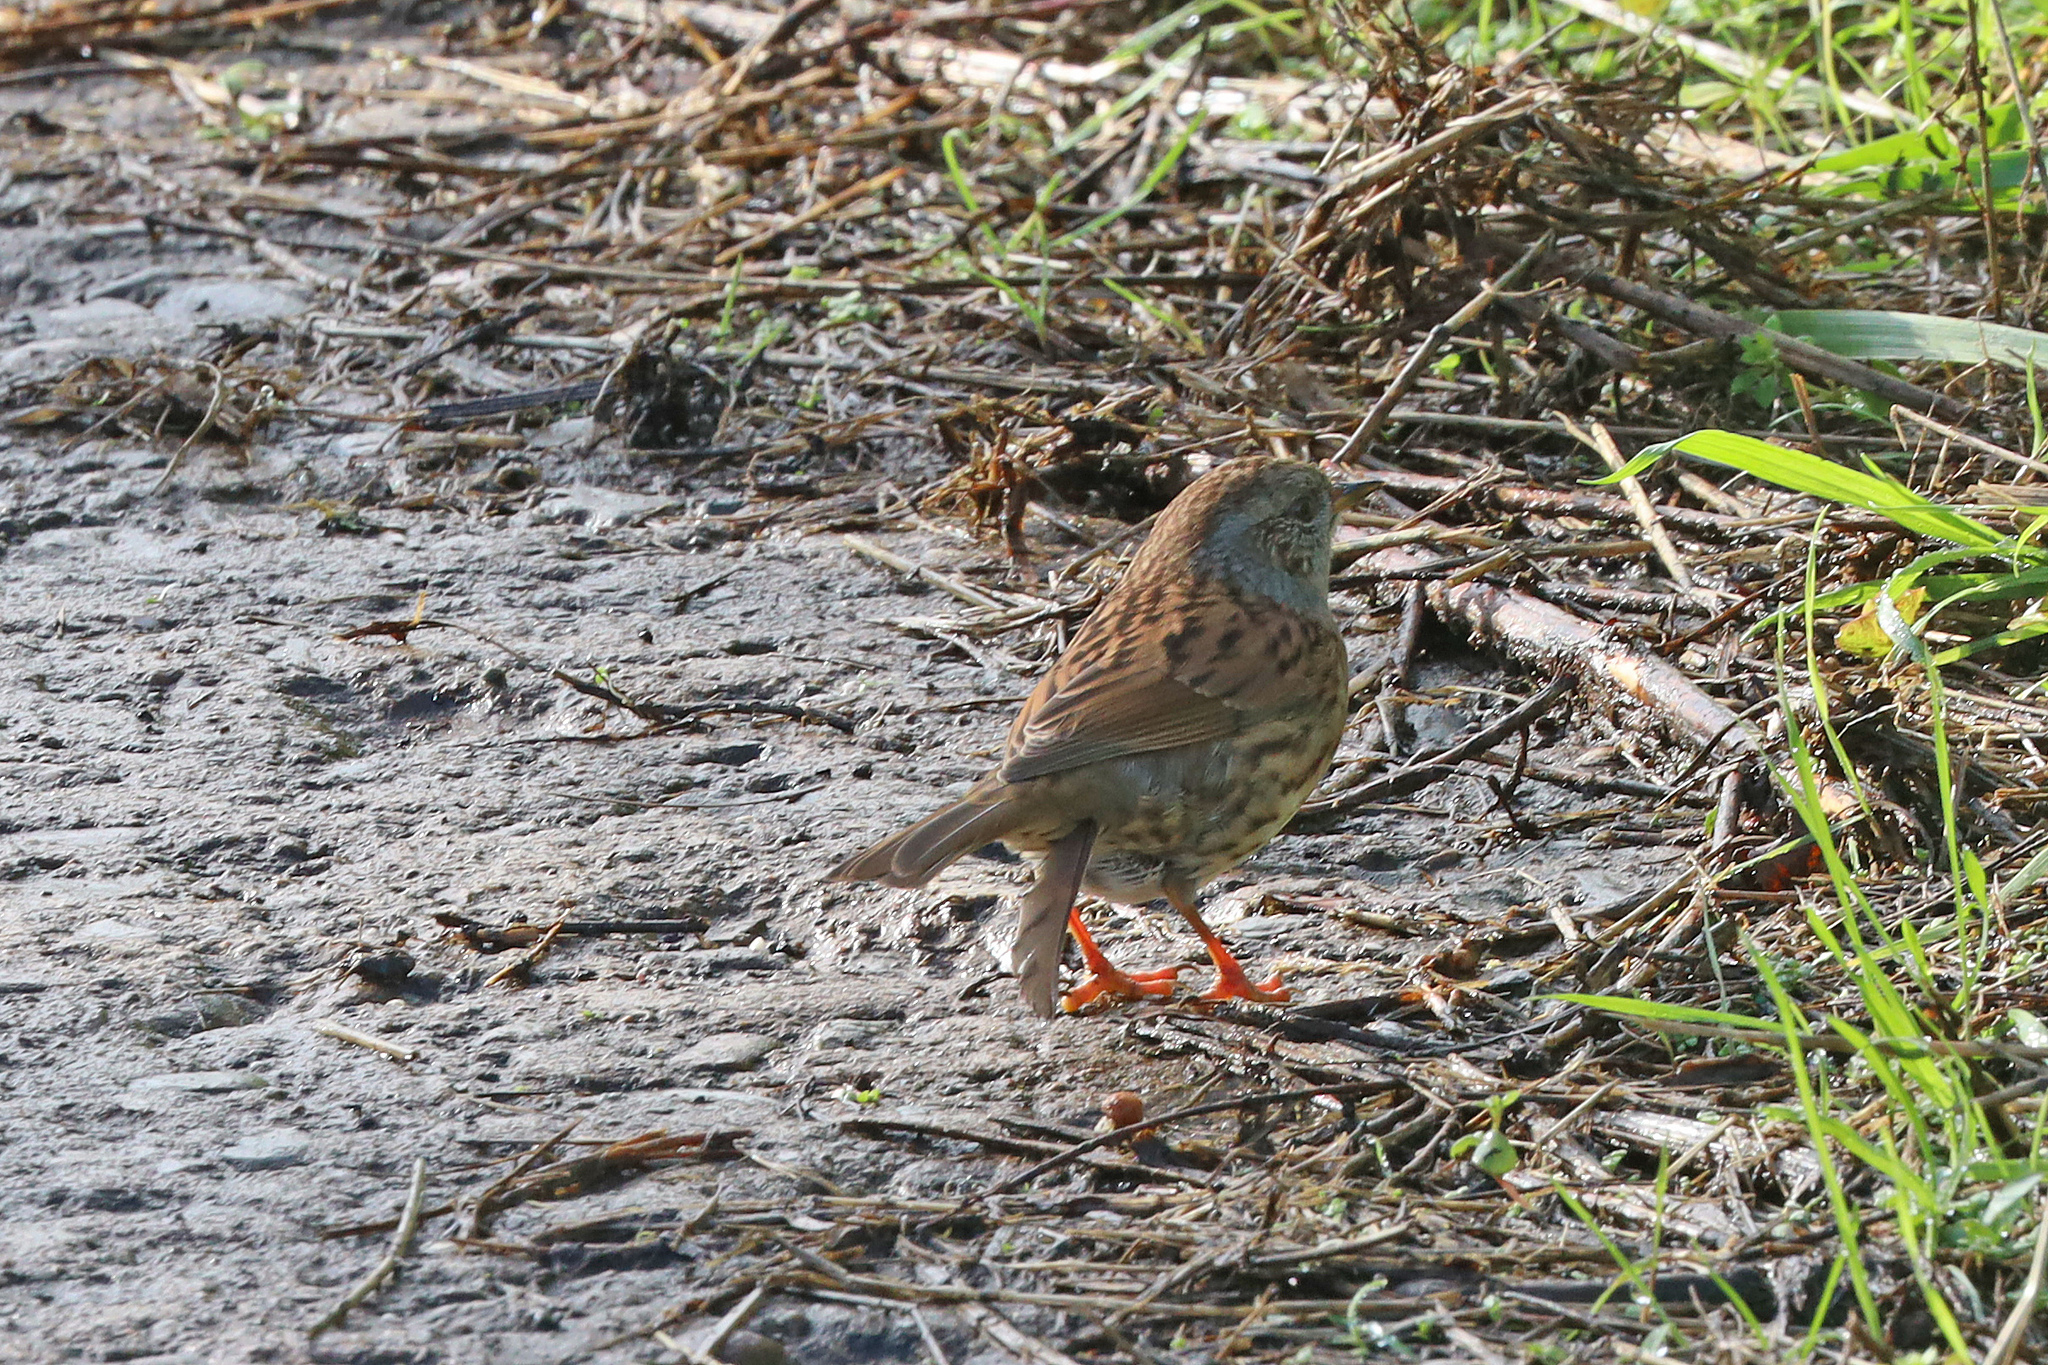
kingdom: Animalia
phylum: Chordata
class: Aves
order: Passeriformes
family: Prunellidae
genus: Prunella
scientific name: Prunella modularis
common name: Dunnock
